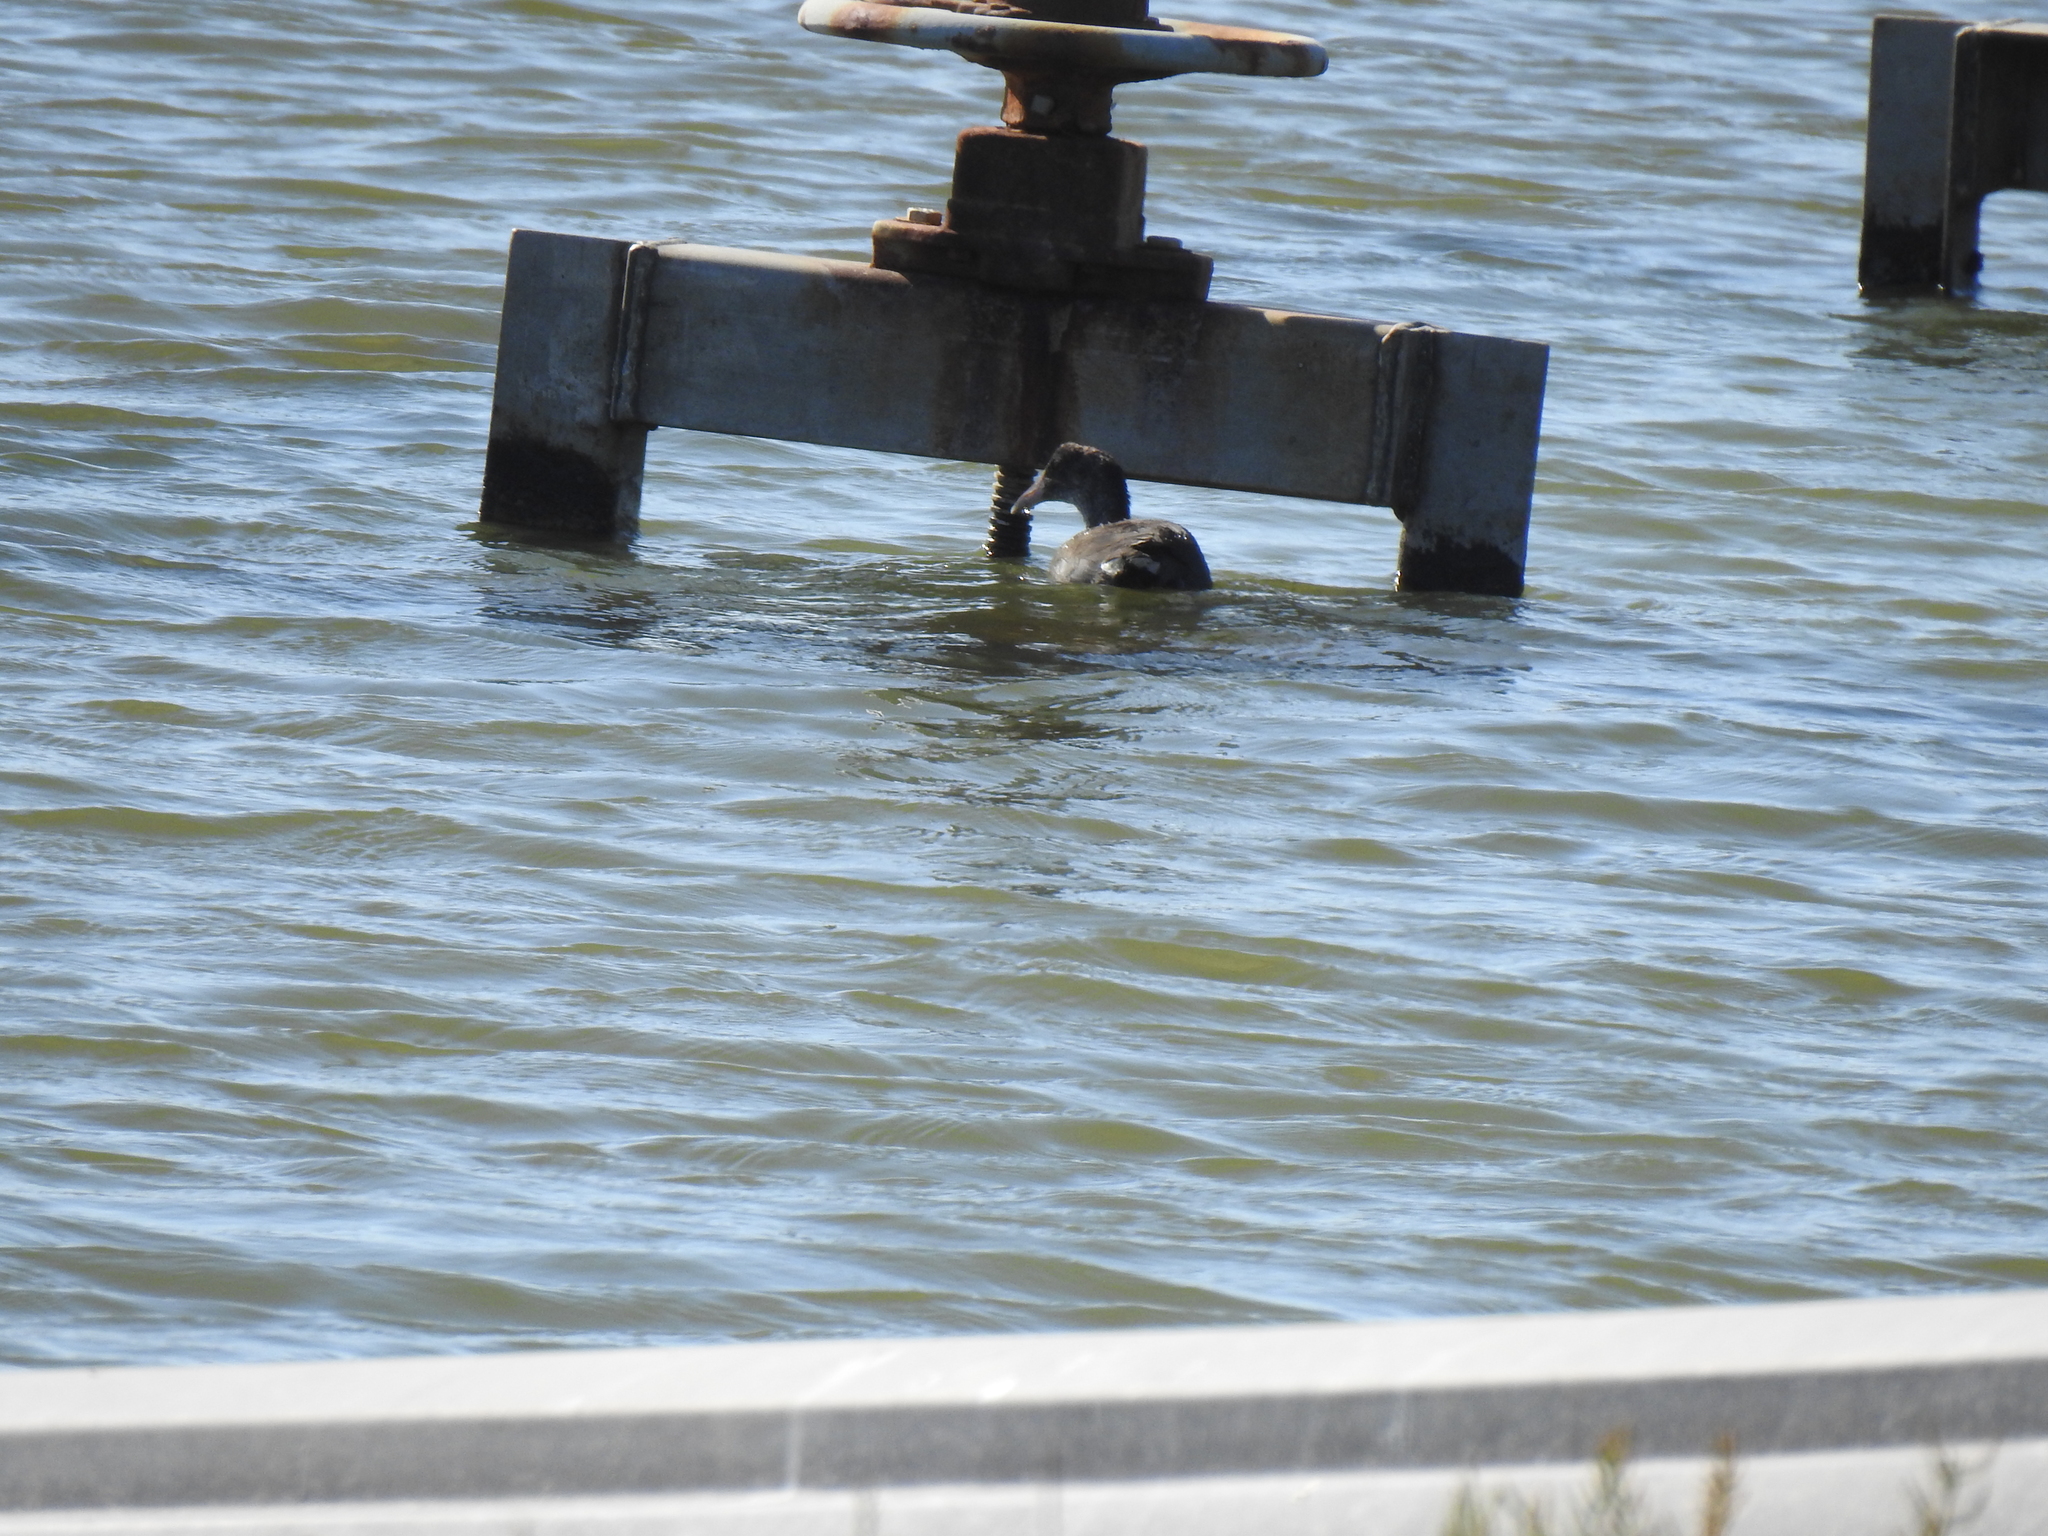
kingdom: Animalia
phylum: Chordata
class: Aves
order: Gruiformes
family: Rallidae
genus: Fulica
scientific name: Fulica americana
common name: American coot
